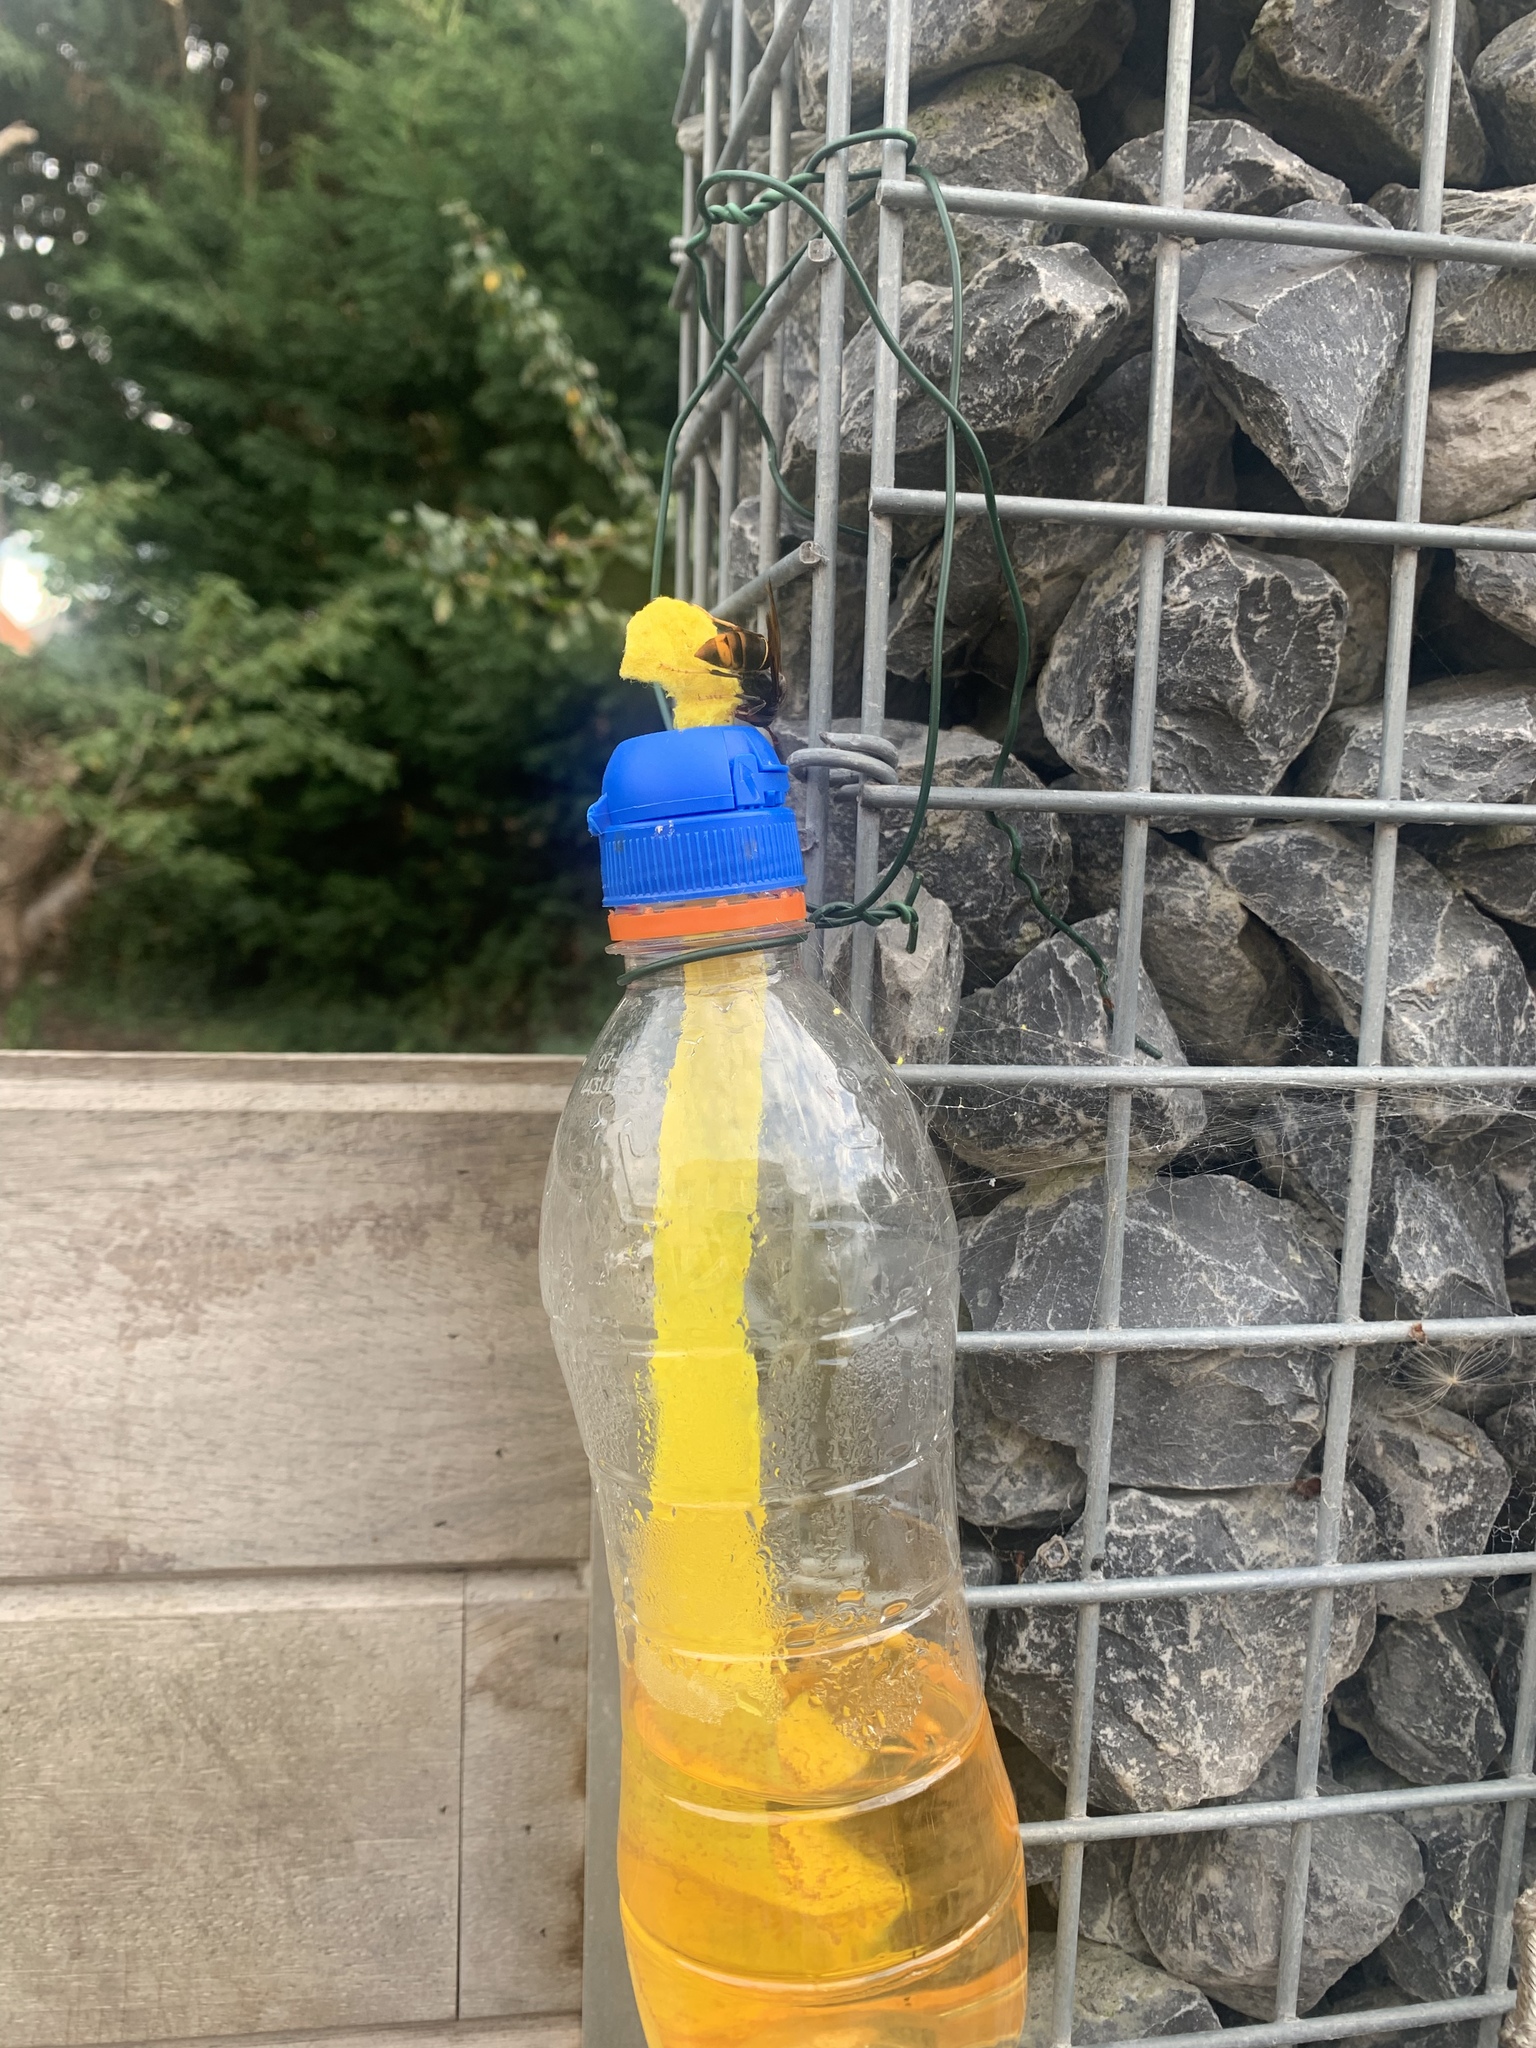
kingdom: Animalia
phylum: Arthropoda
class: Insecta
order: Hymenoptera
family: Vespidae
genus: Vespa
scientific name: Vespa velutina
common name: Asian hornet
